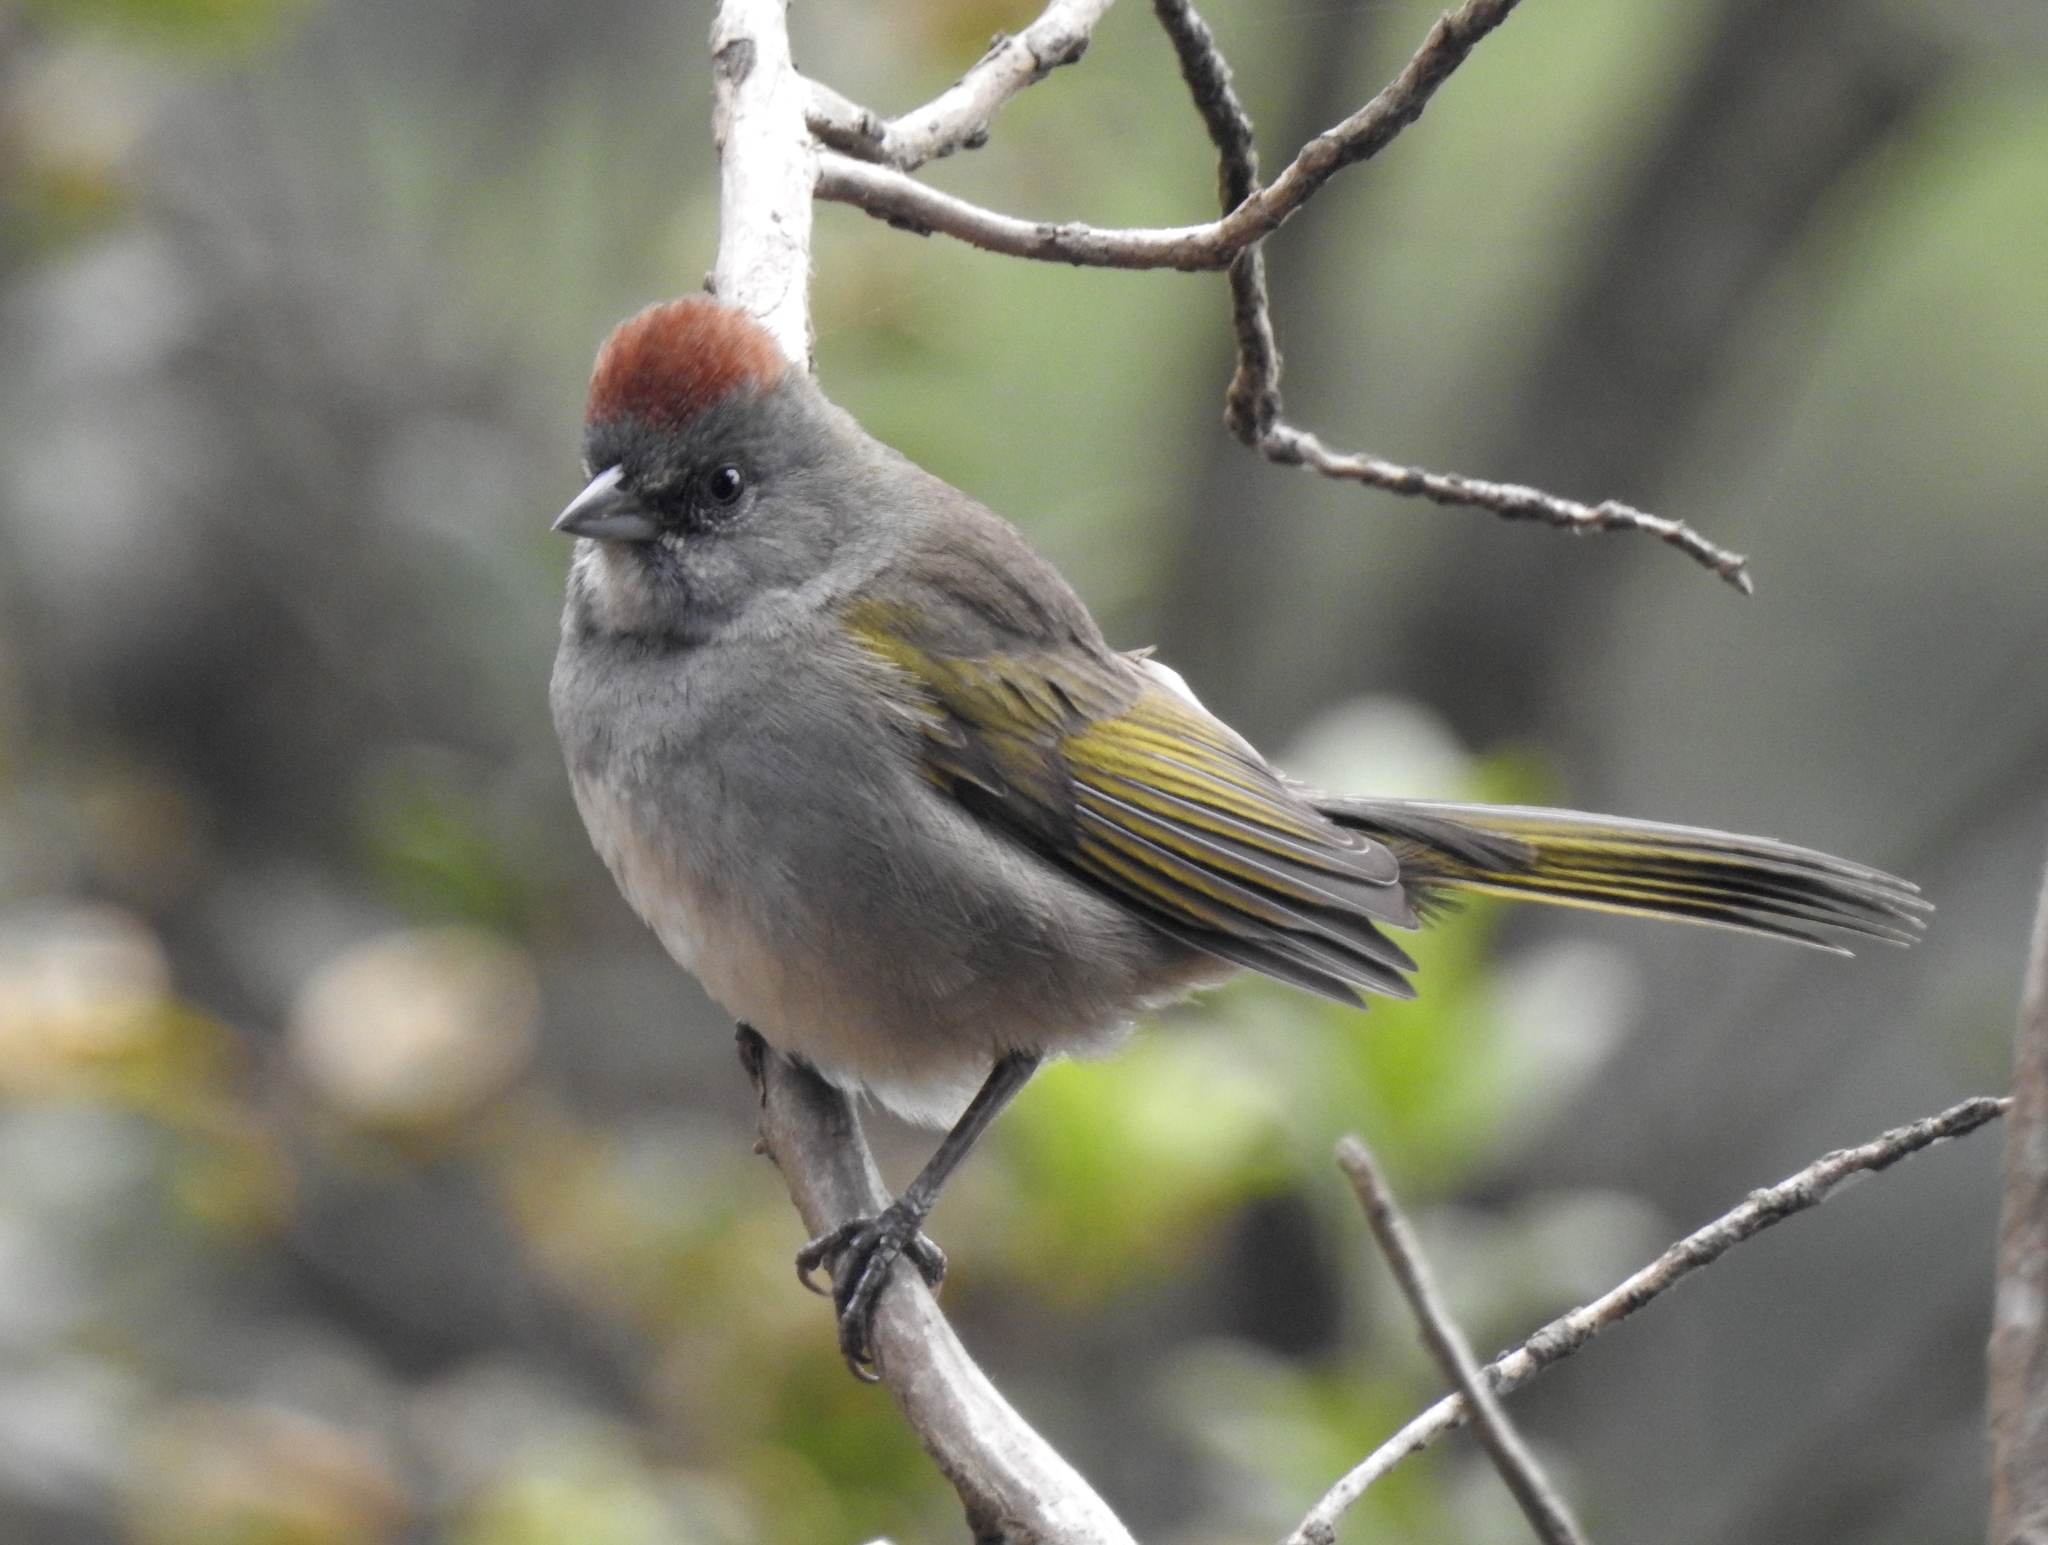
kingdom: Animalia
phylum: Chordata
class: Aves
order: Passeriformes
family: Passerellidae
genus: Pipilo
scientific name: Pipilo chlorurus
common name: Green-tailed towhee
